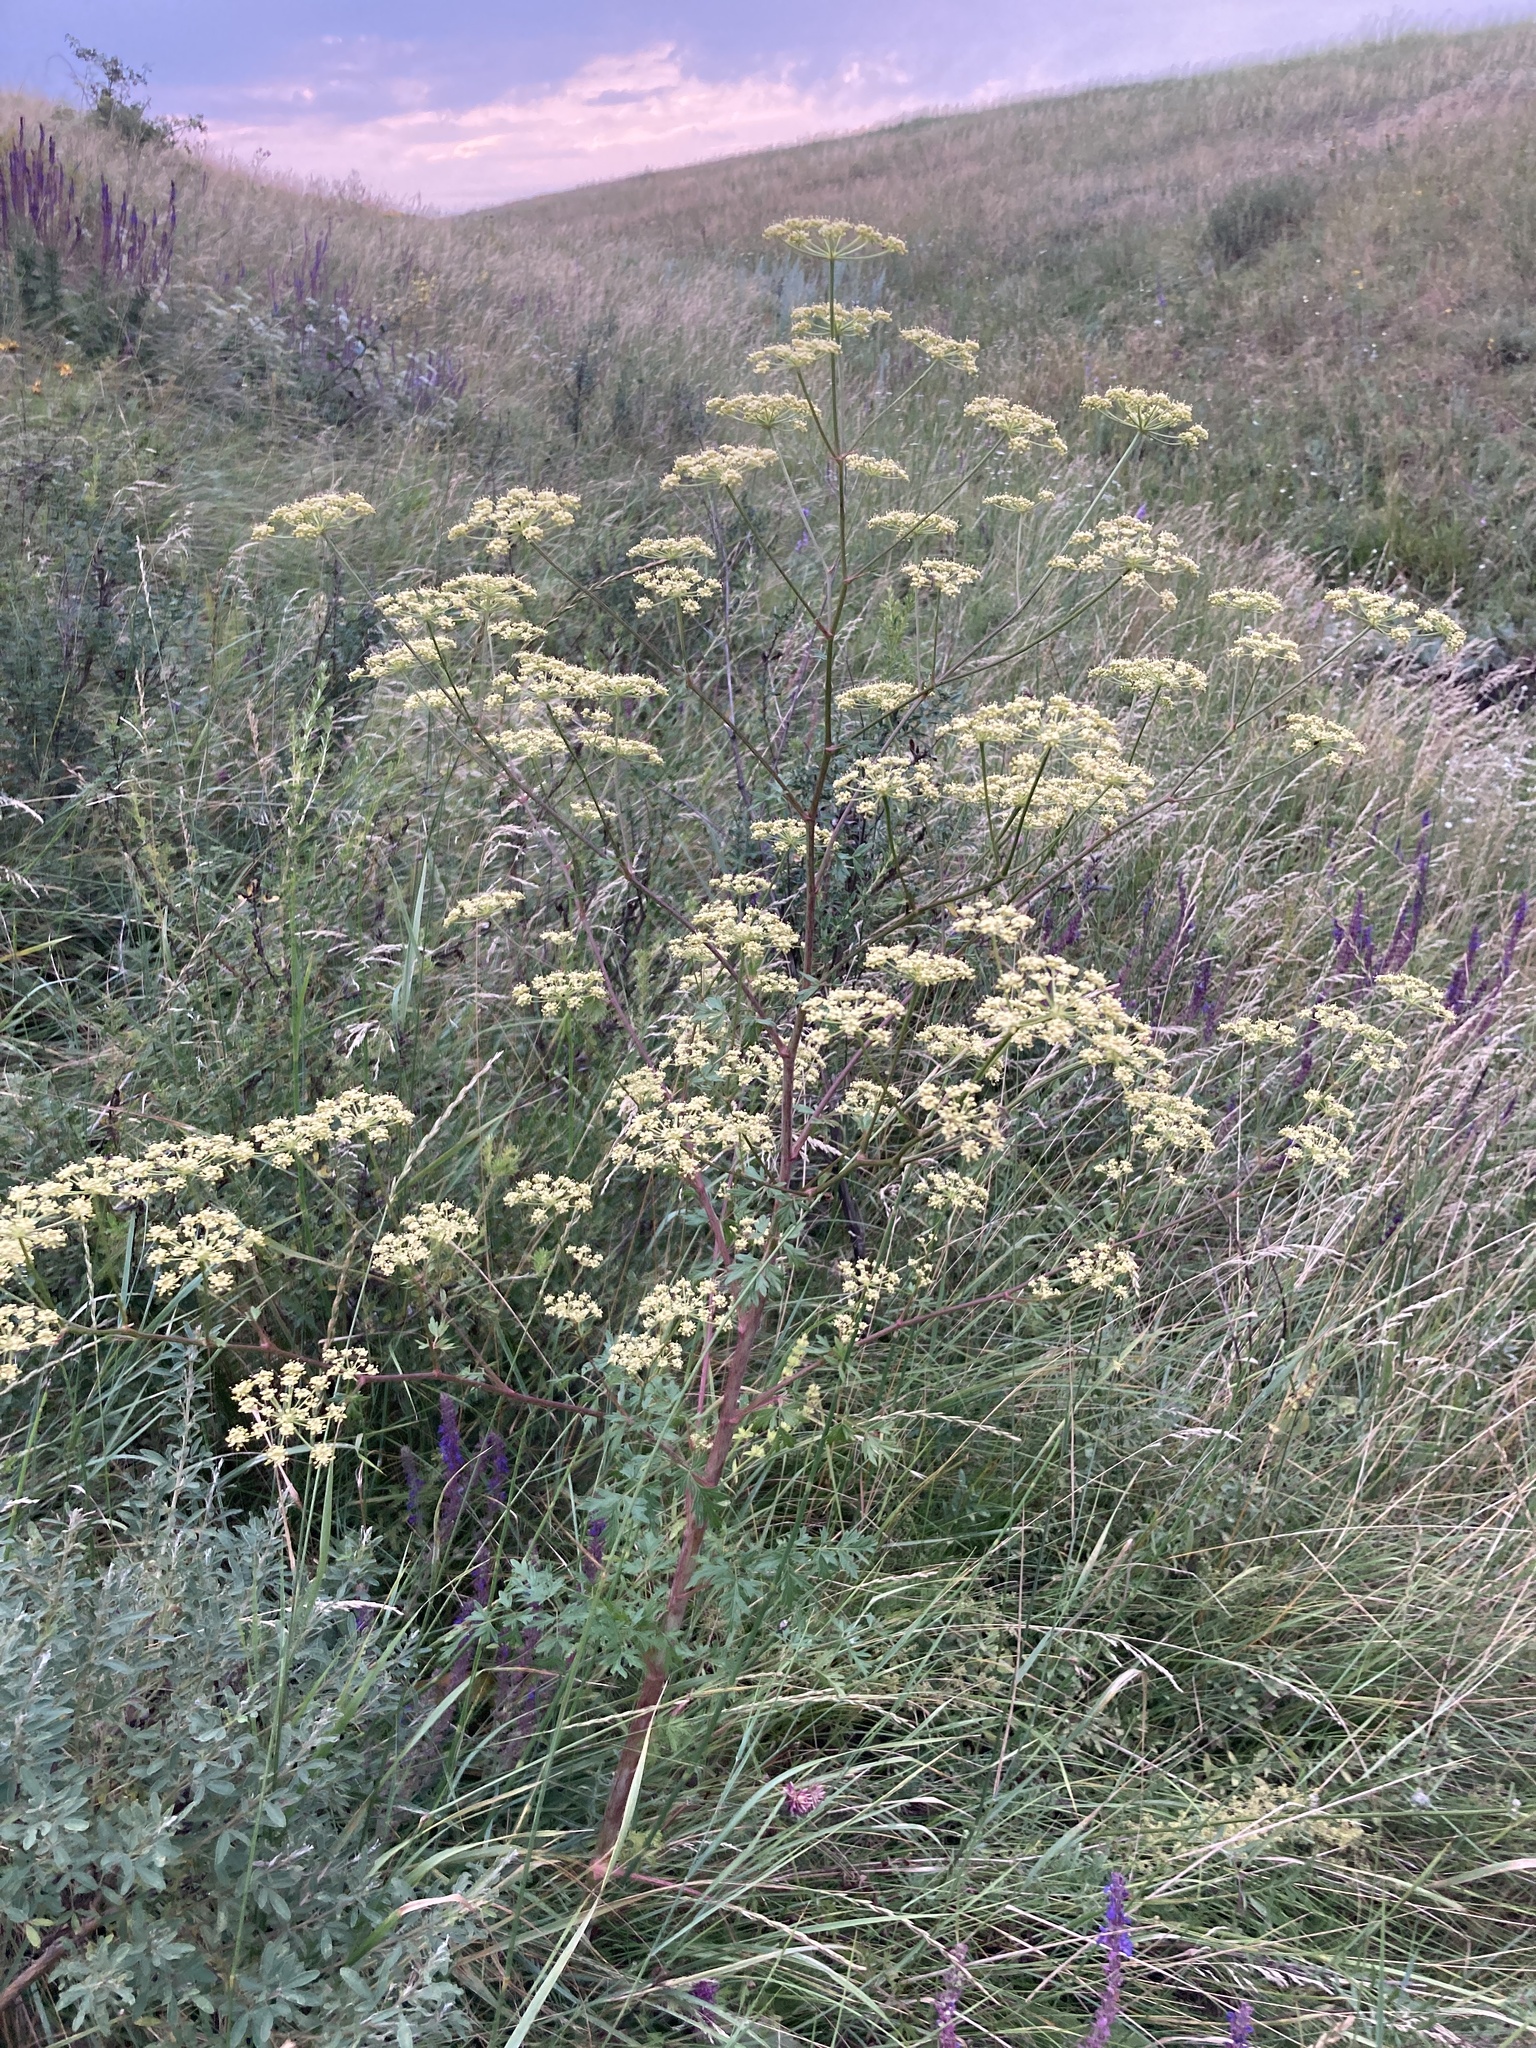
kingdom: Plantae
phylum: Tracheophyta
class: Magnoliopsida
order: Apiales
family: Apiaceae
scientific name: Apiaceae
